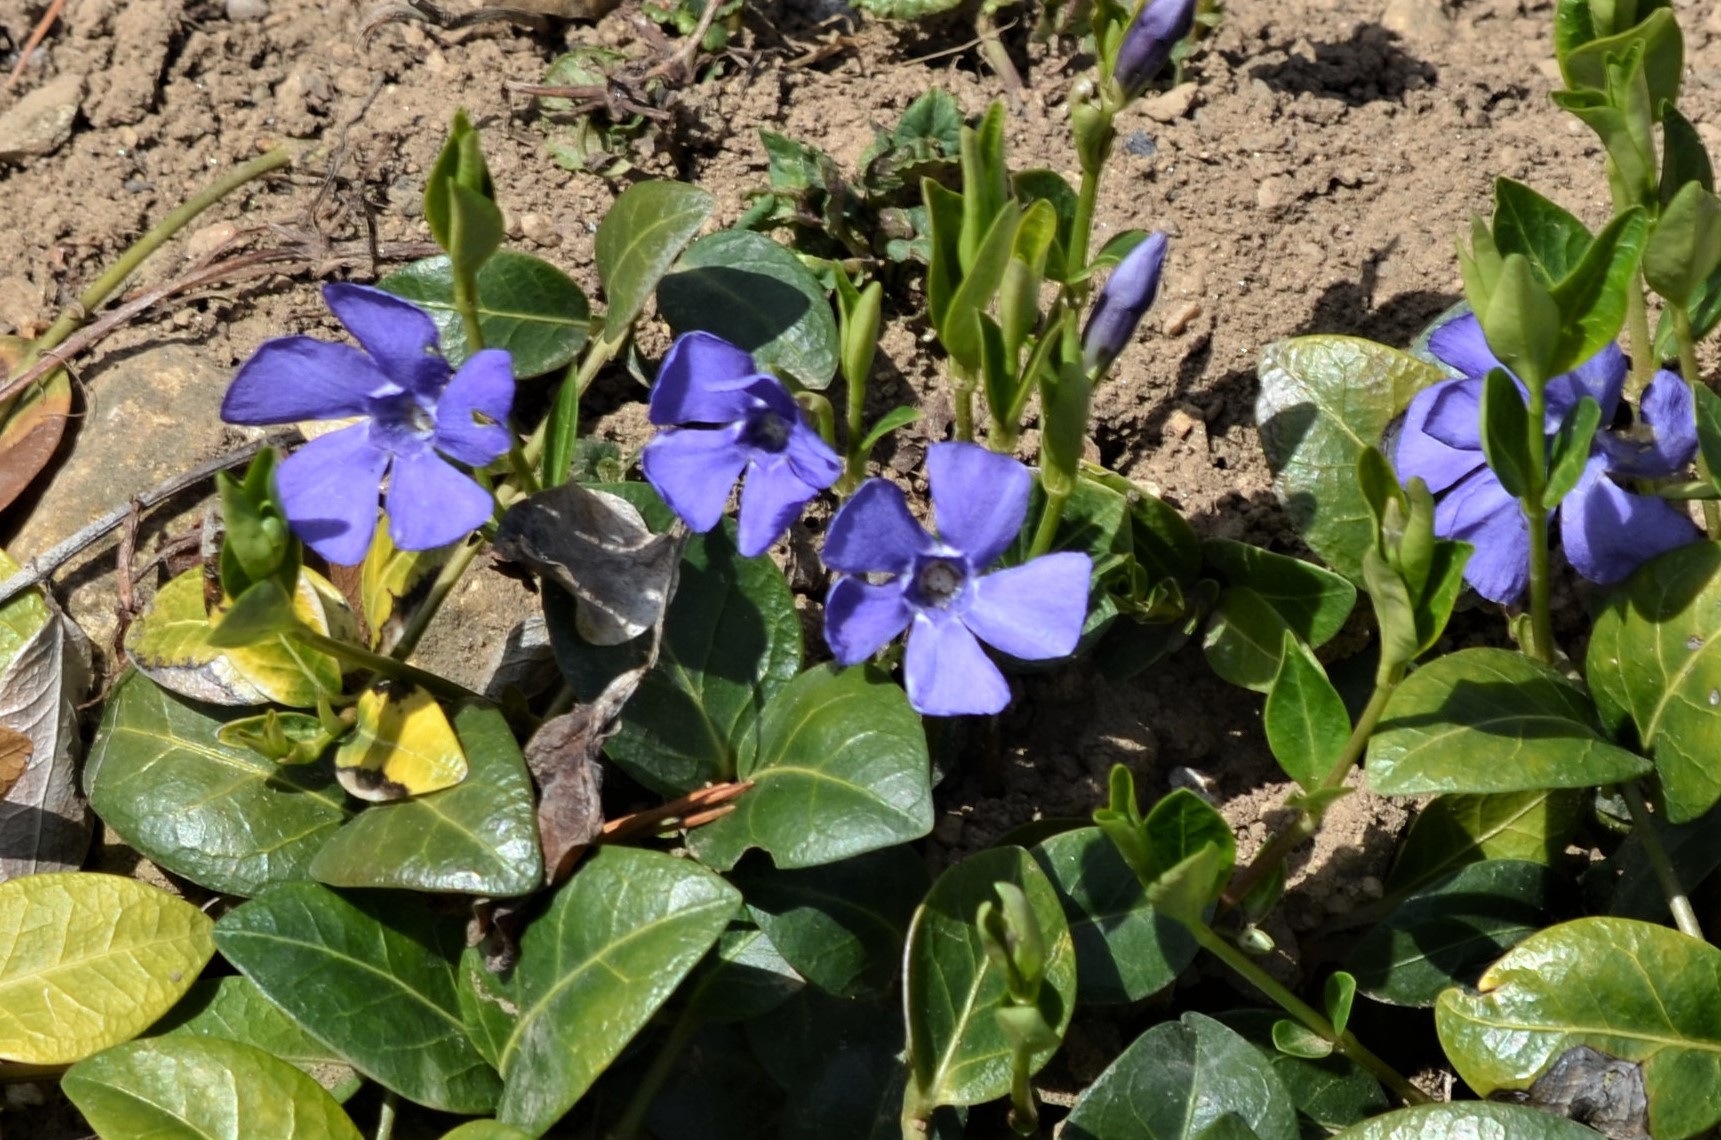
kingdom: Plantae
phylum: Tracheophyta
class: Magnoliopsida
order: Gentianales
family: Apocynaceae
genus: Vinca
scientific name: Vinca minor
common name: Lesser periwinkle
